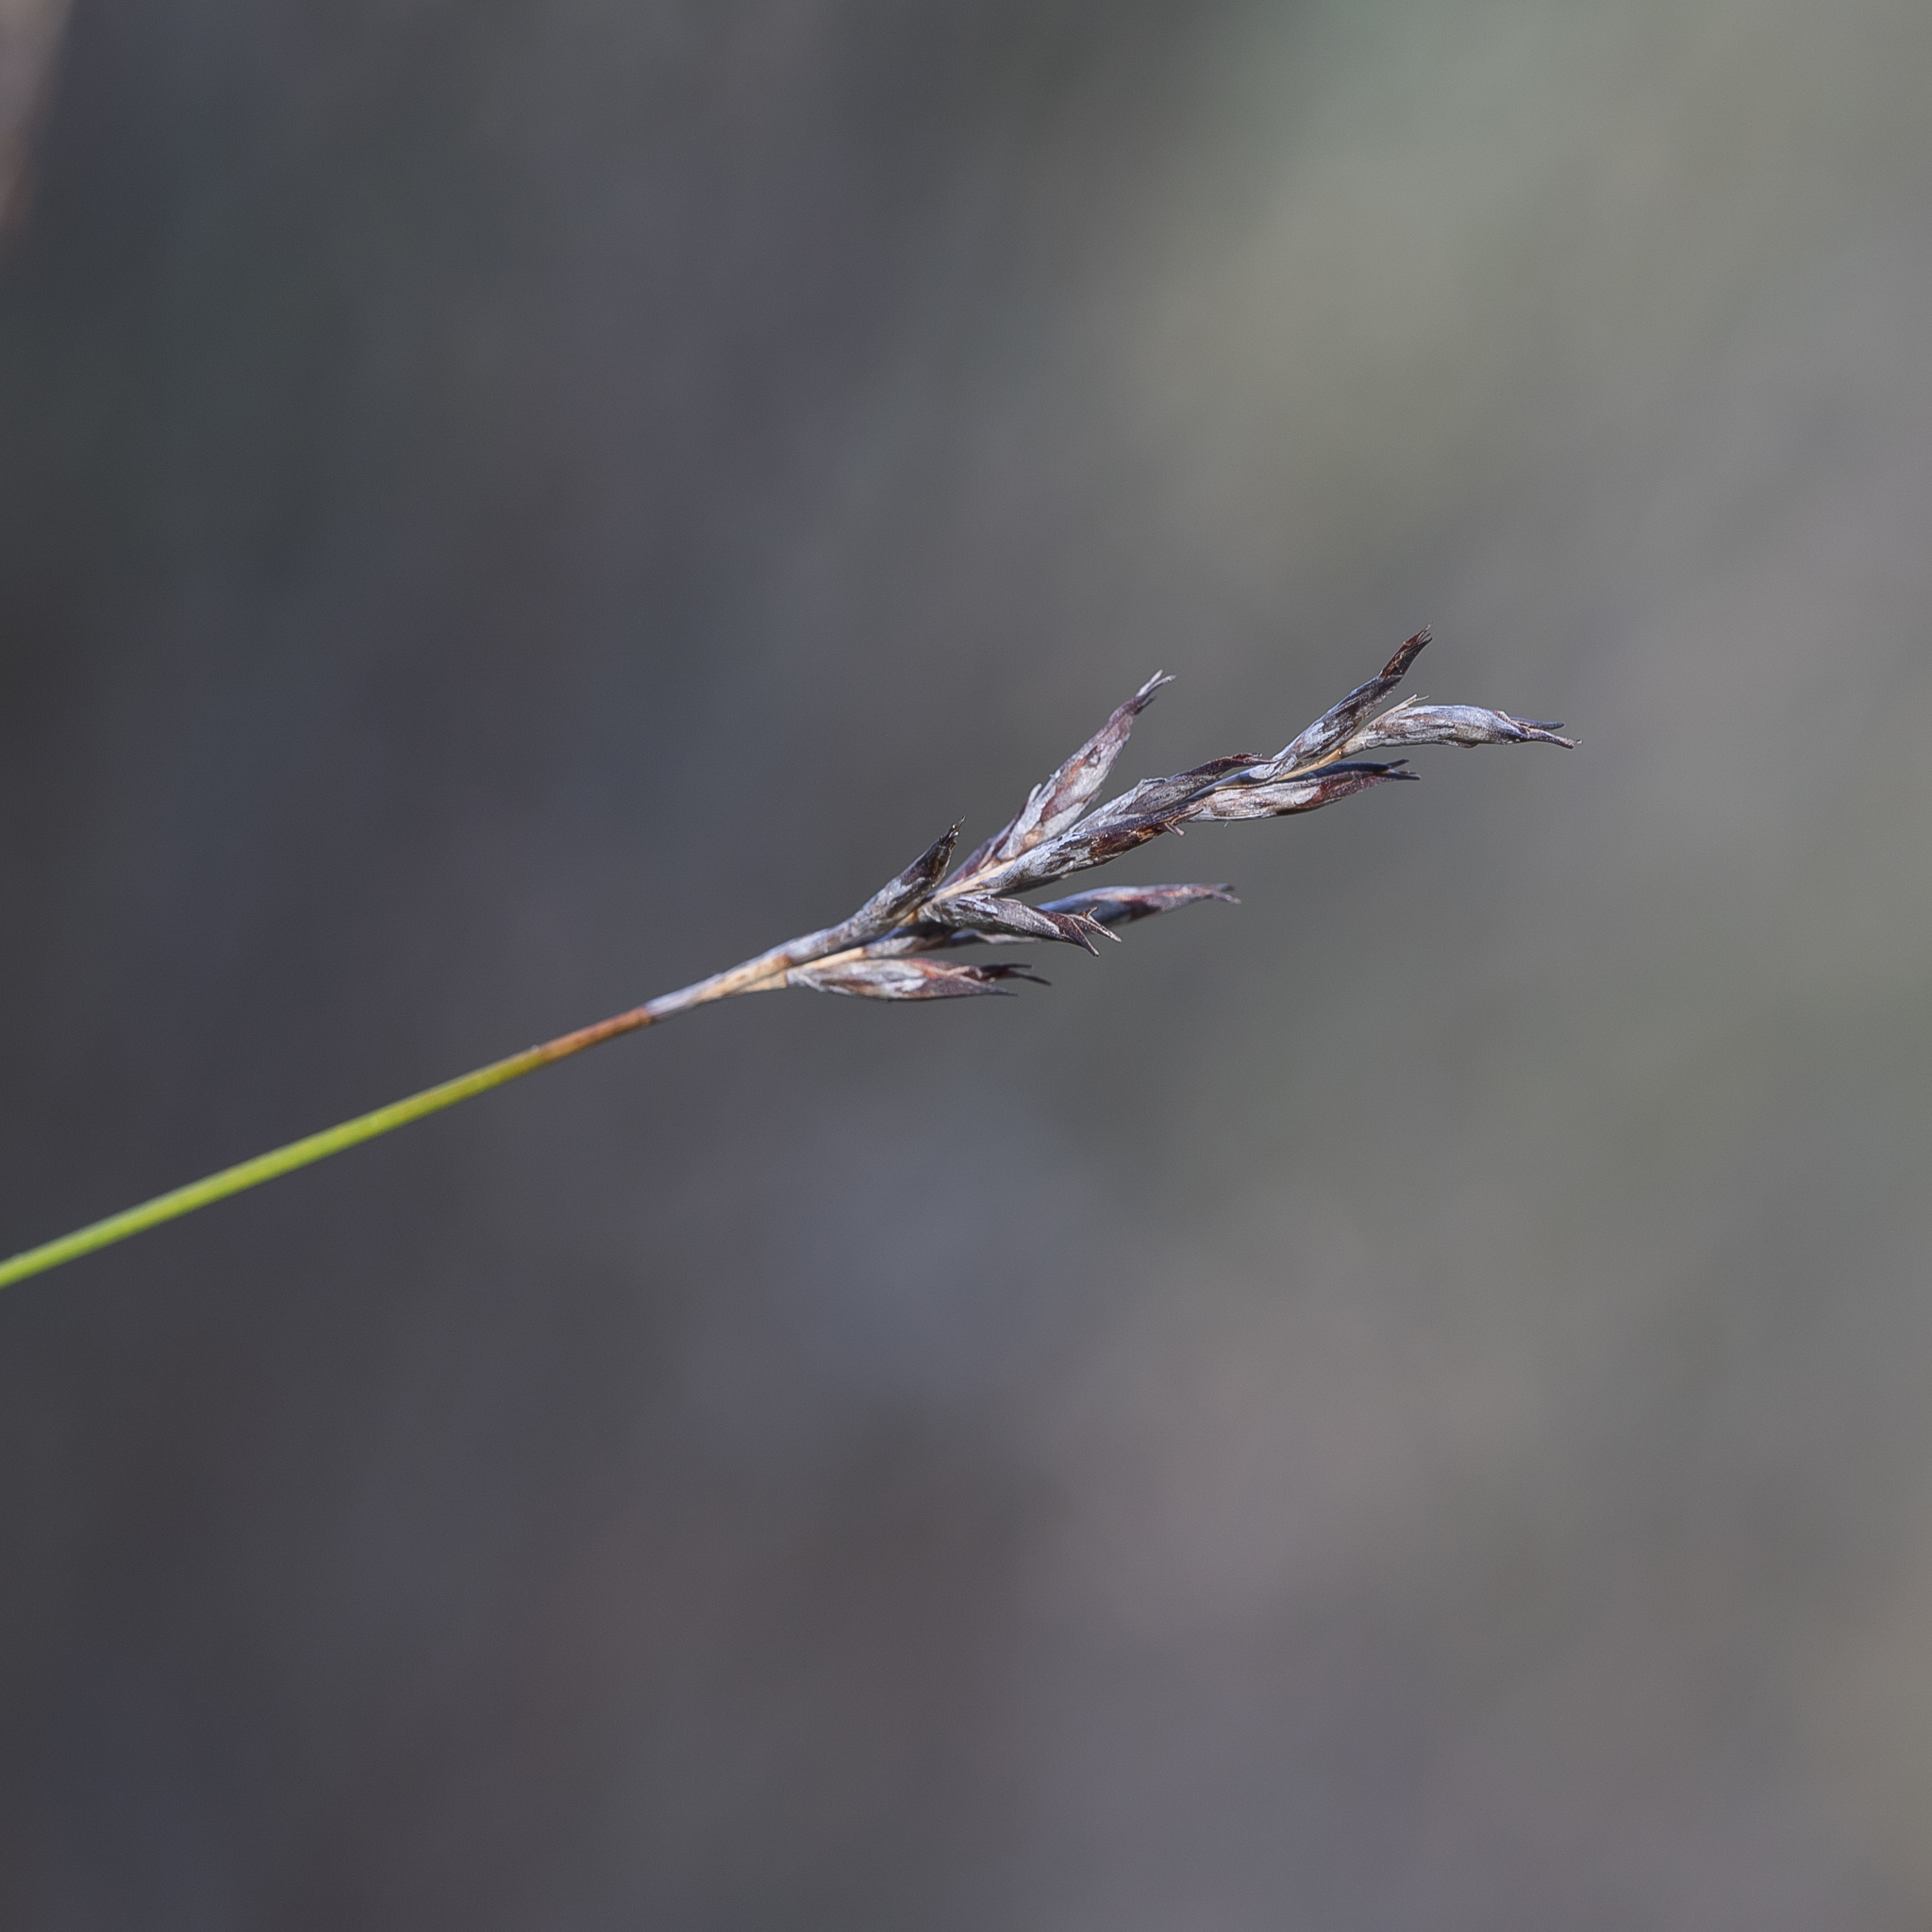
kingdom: Plantae
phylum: Tracheophyta
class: Liliopsida
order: Poales
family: Cyperaceae
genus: Lepidosperma
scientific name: Lepidosperma semiteres
